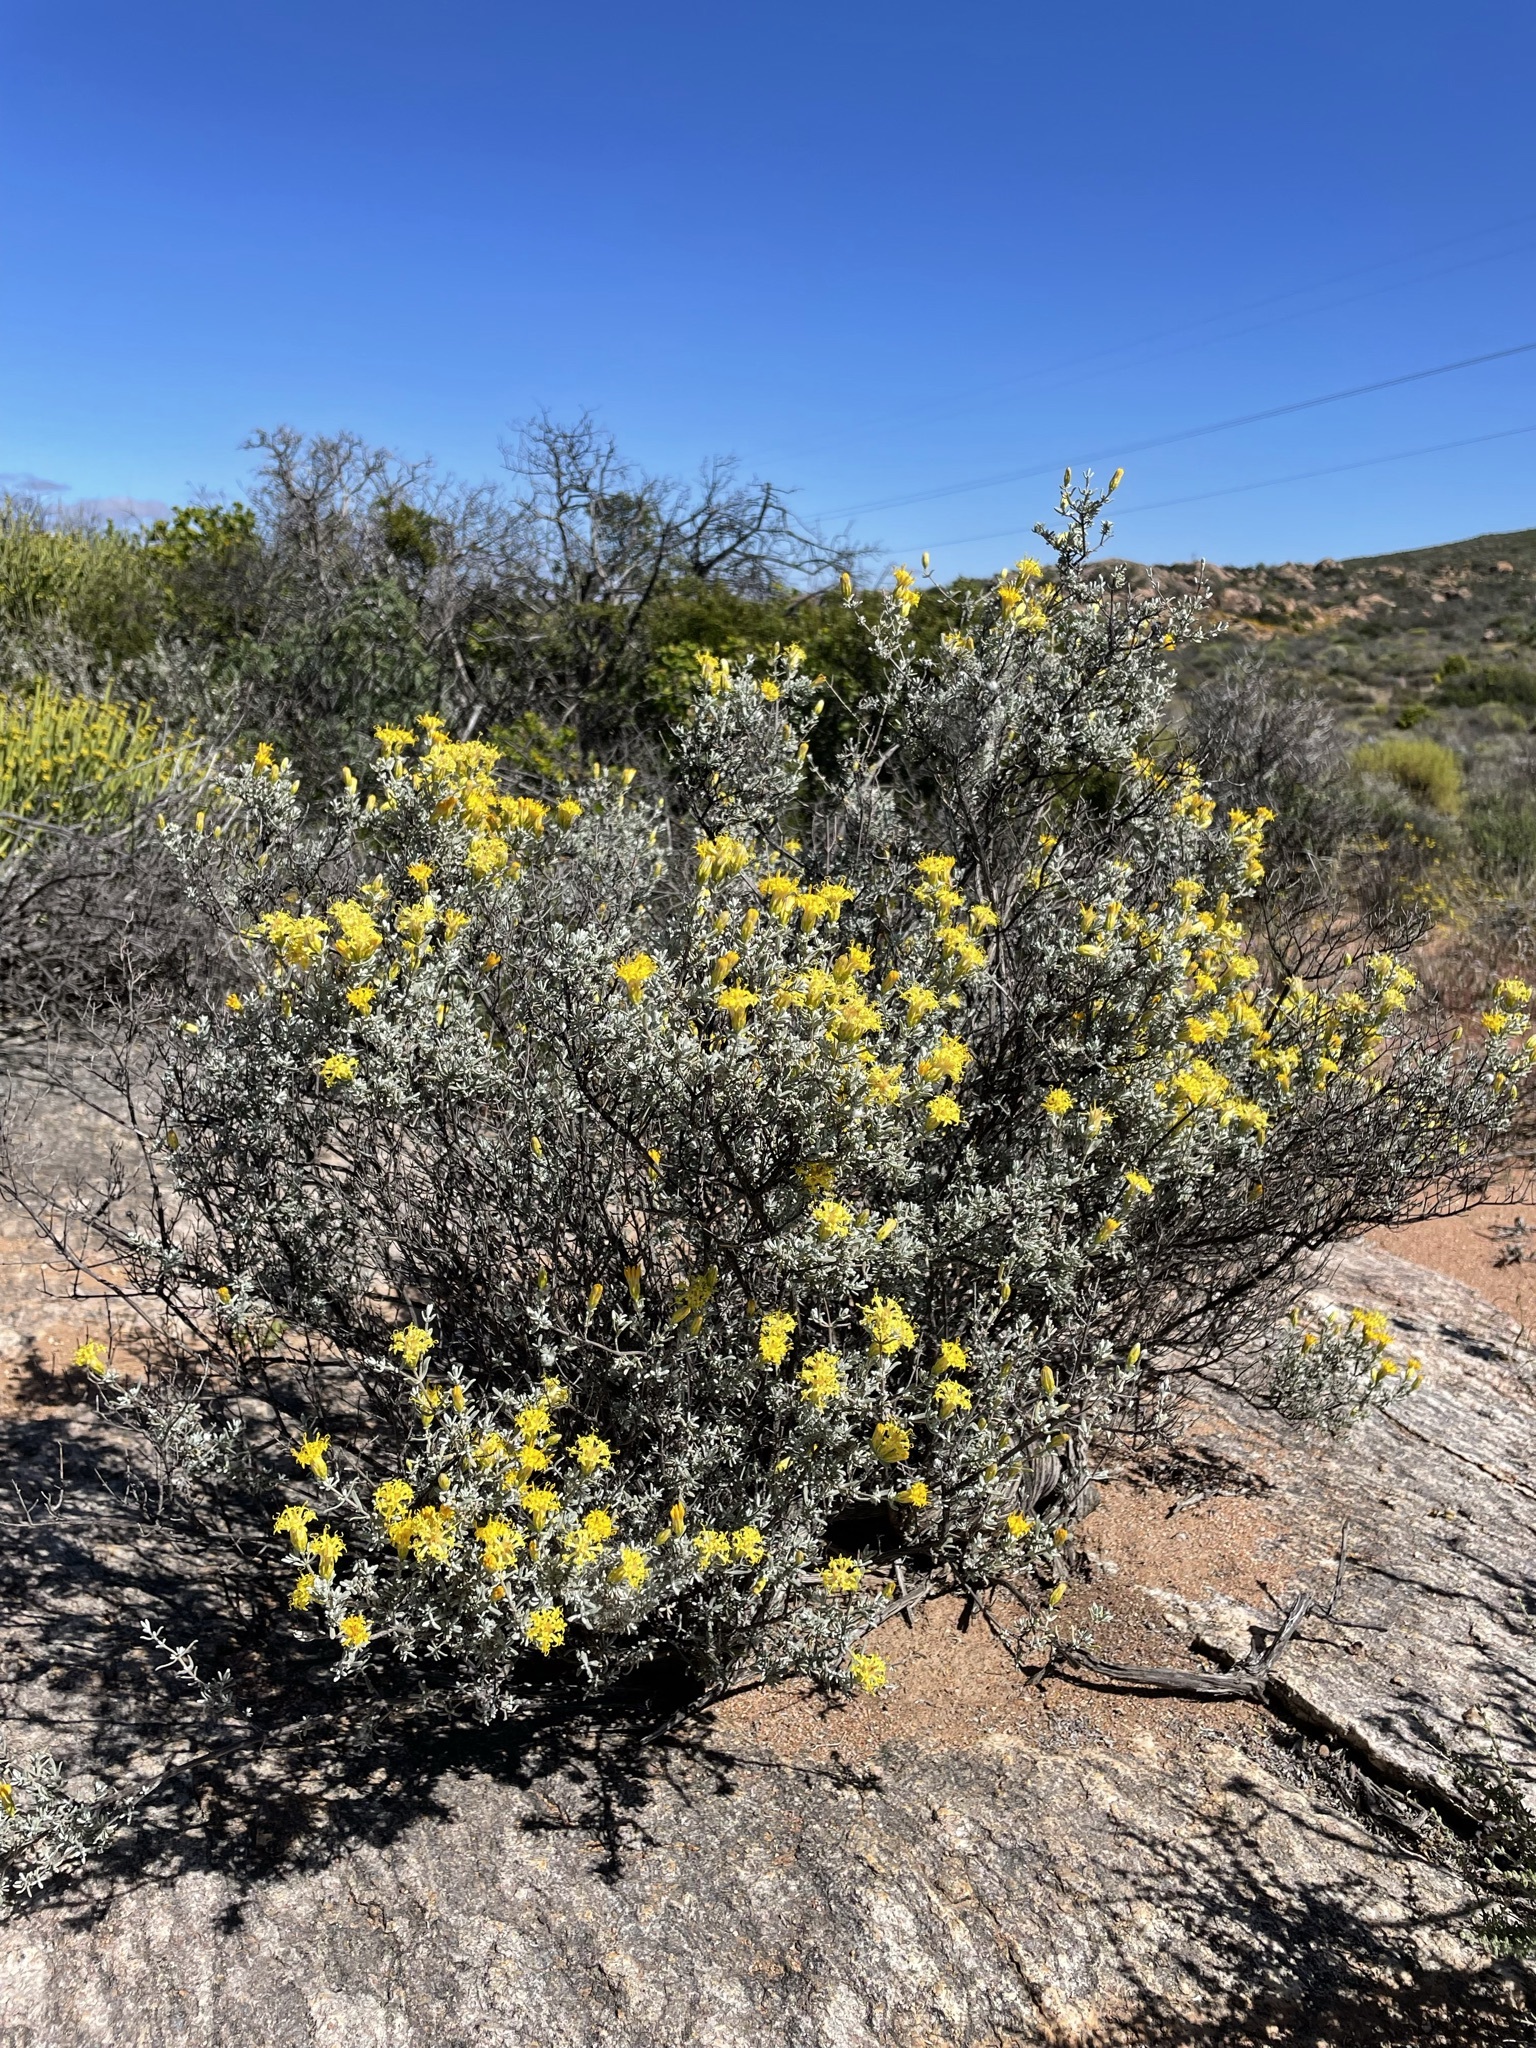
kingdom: Plantae
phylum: Tracheophyta
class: Magnoliopsida
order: Asterales
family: Asteraceae
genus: Pteronia
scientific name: Pteronia incana
